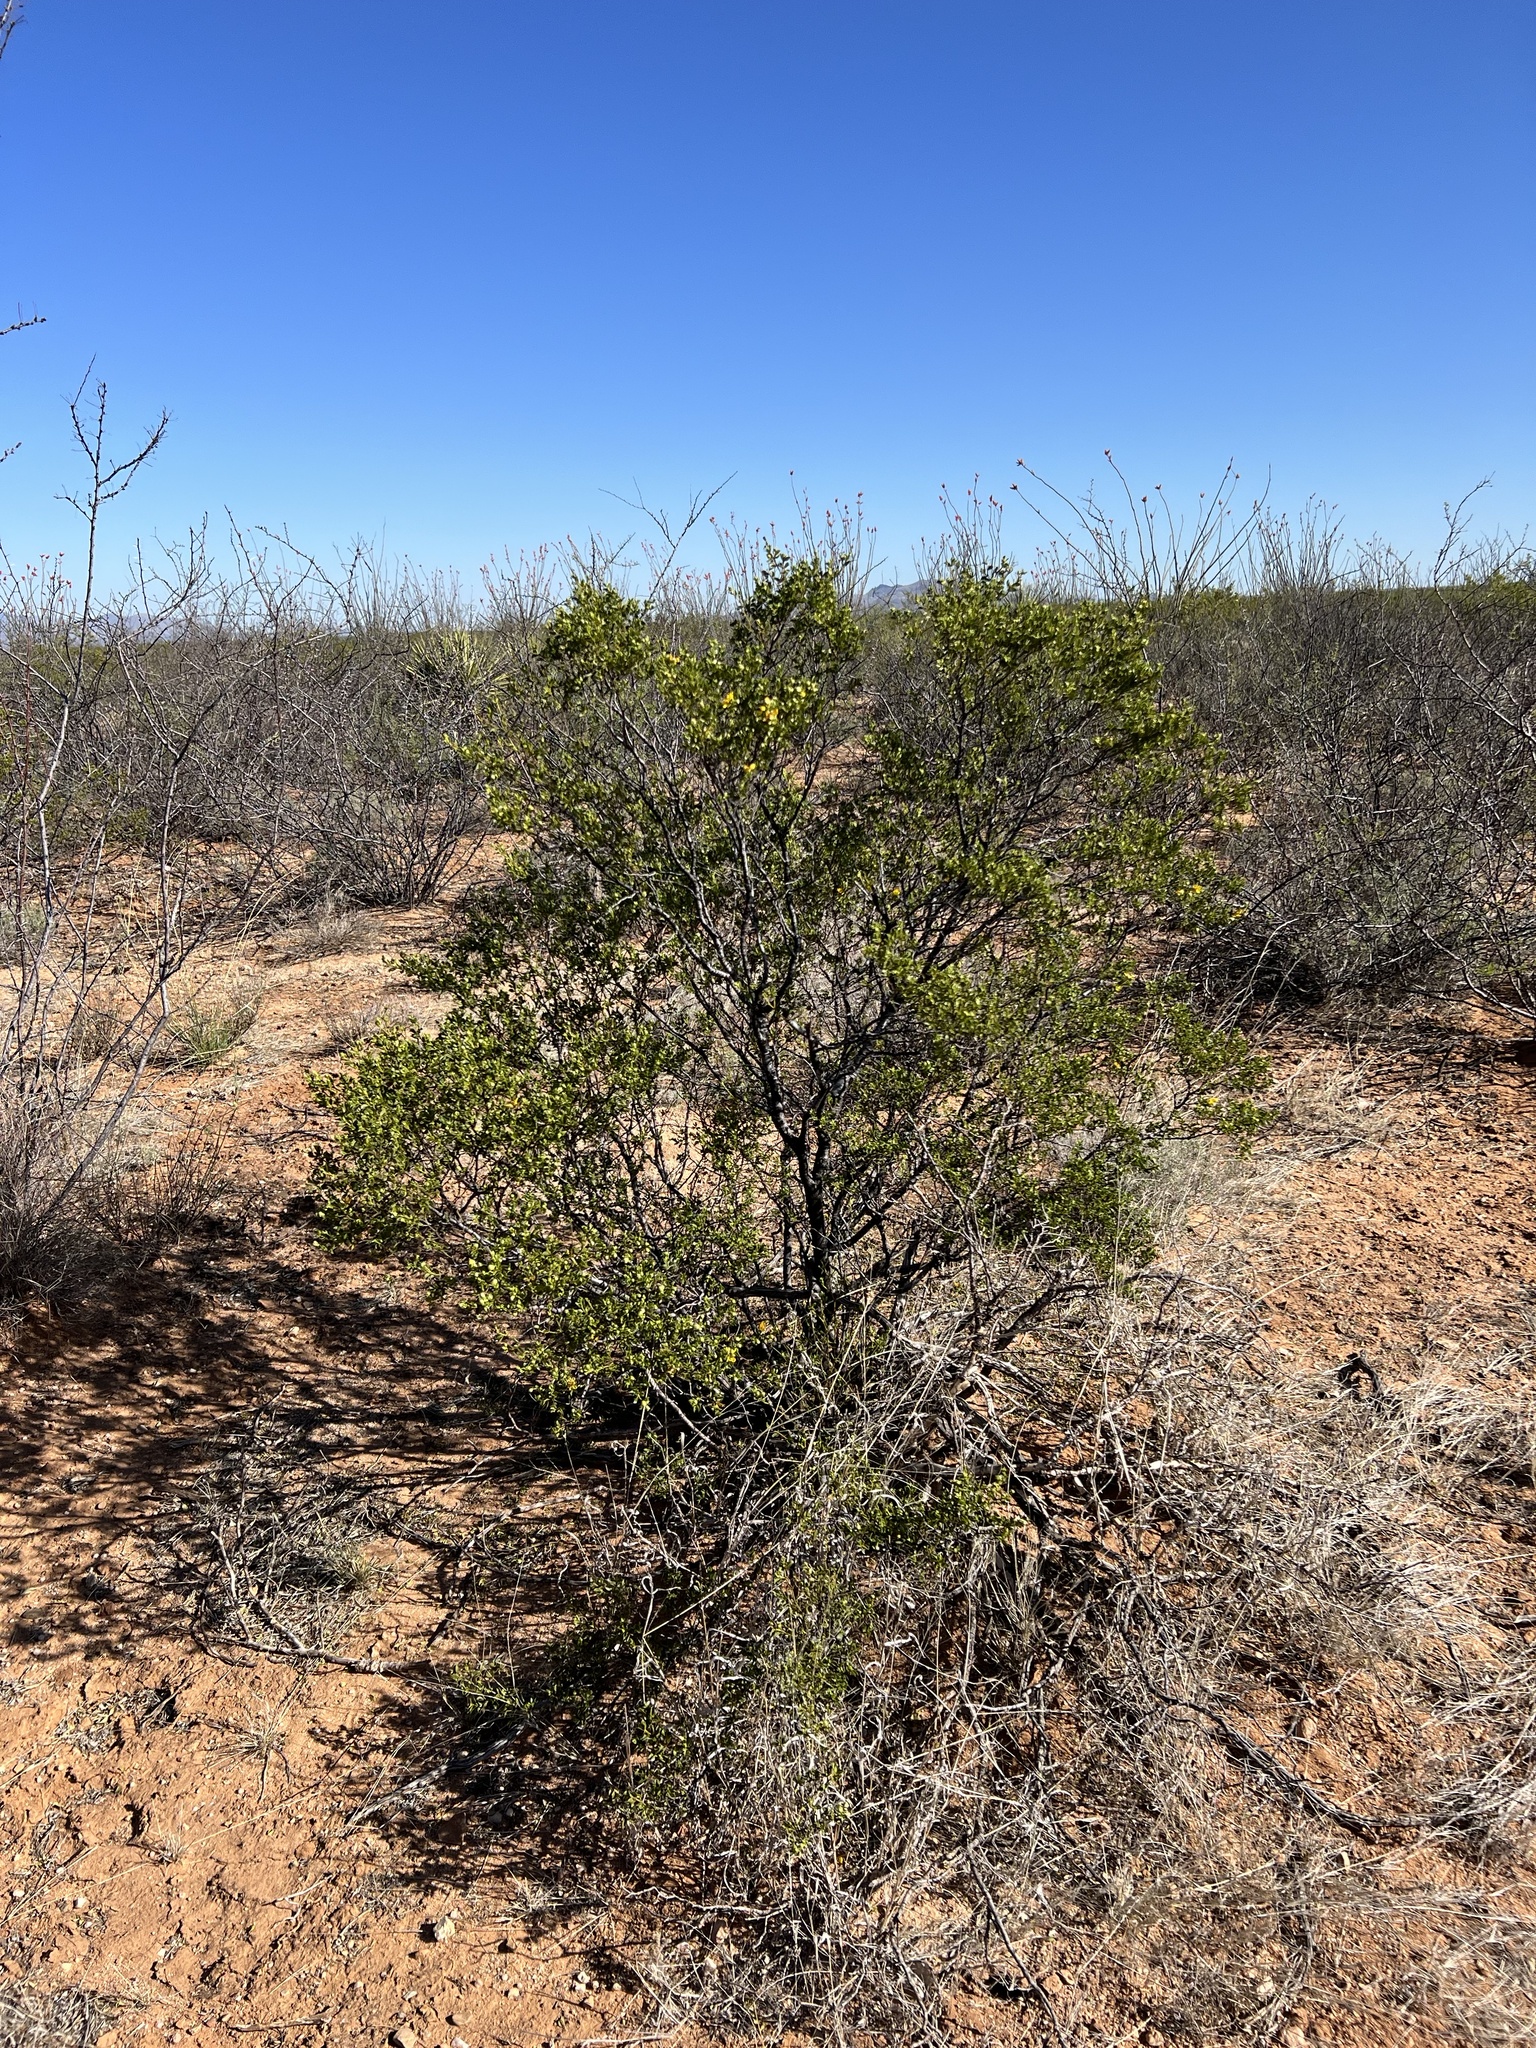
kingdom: Plantae
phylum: Tracheophyta
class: Magnoliopsida
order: Zygophyllales
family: Zygophyllaceae
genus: Larrea
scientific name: Larrea tridentata
